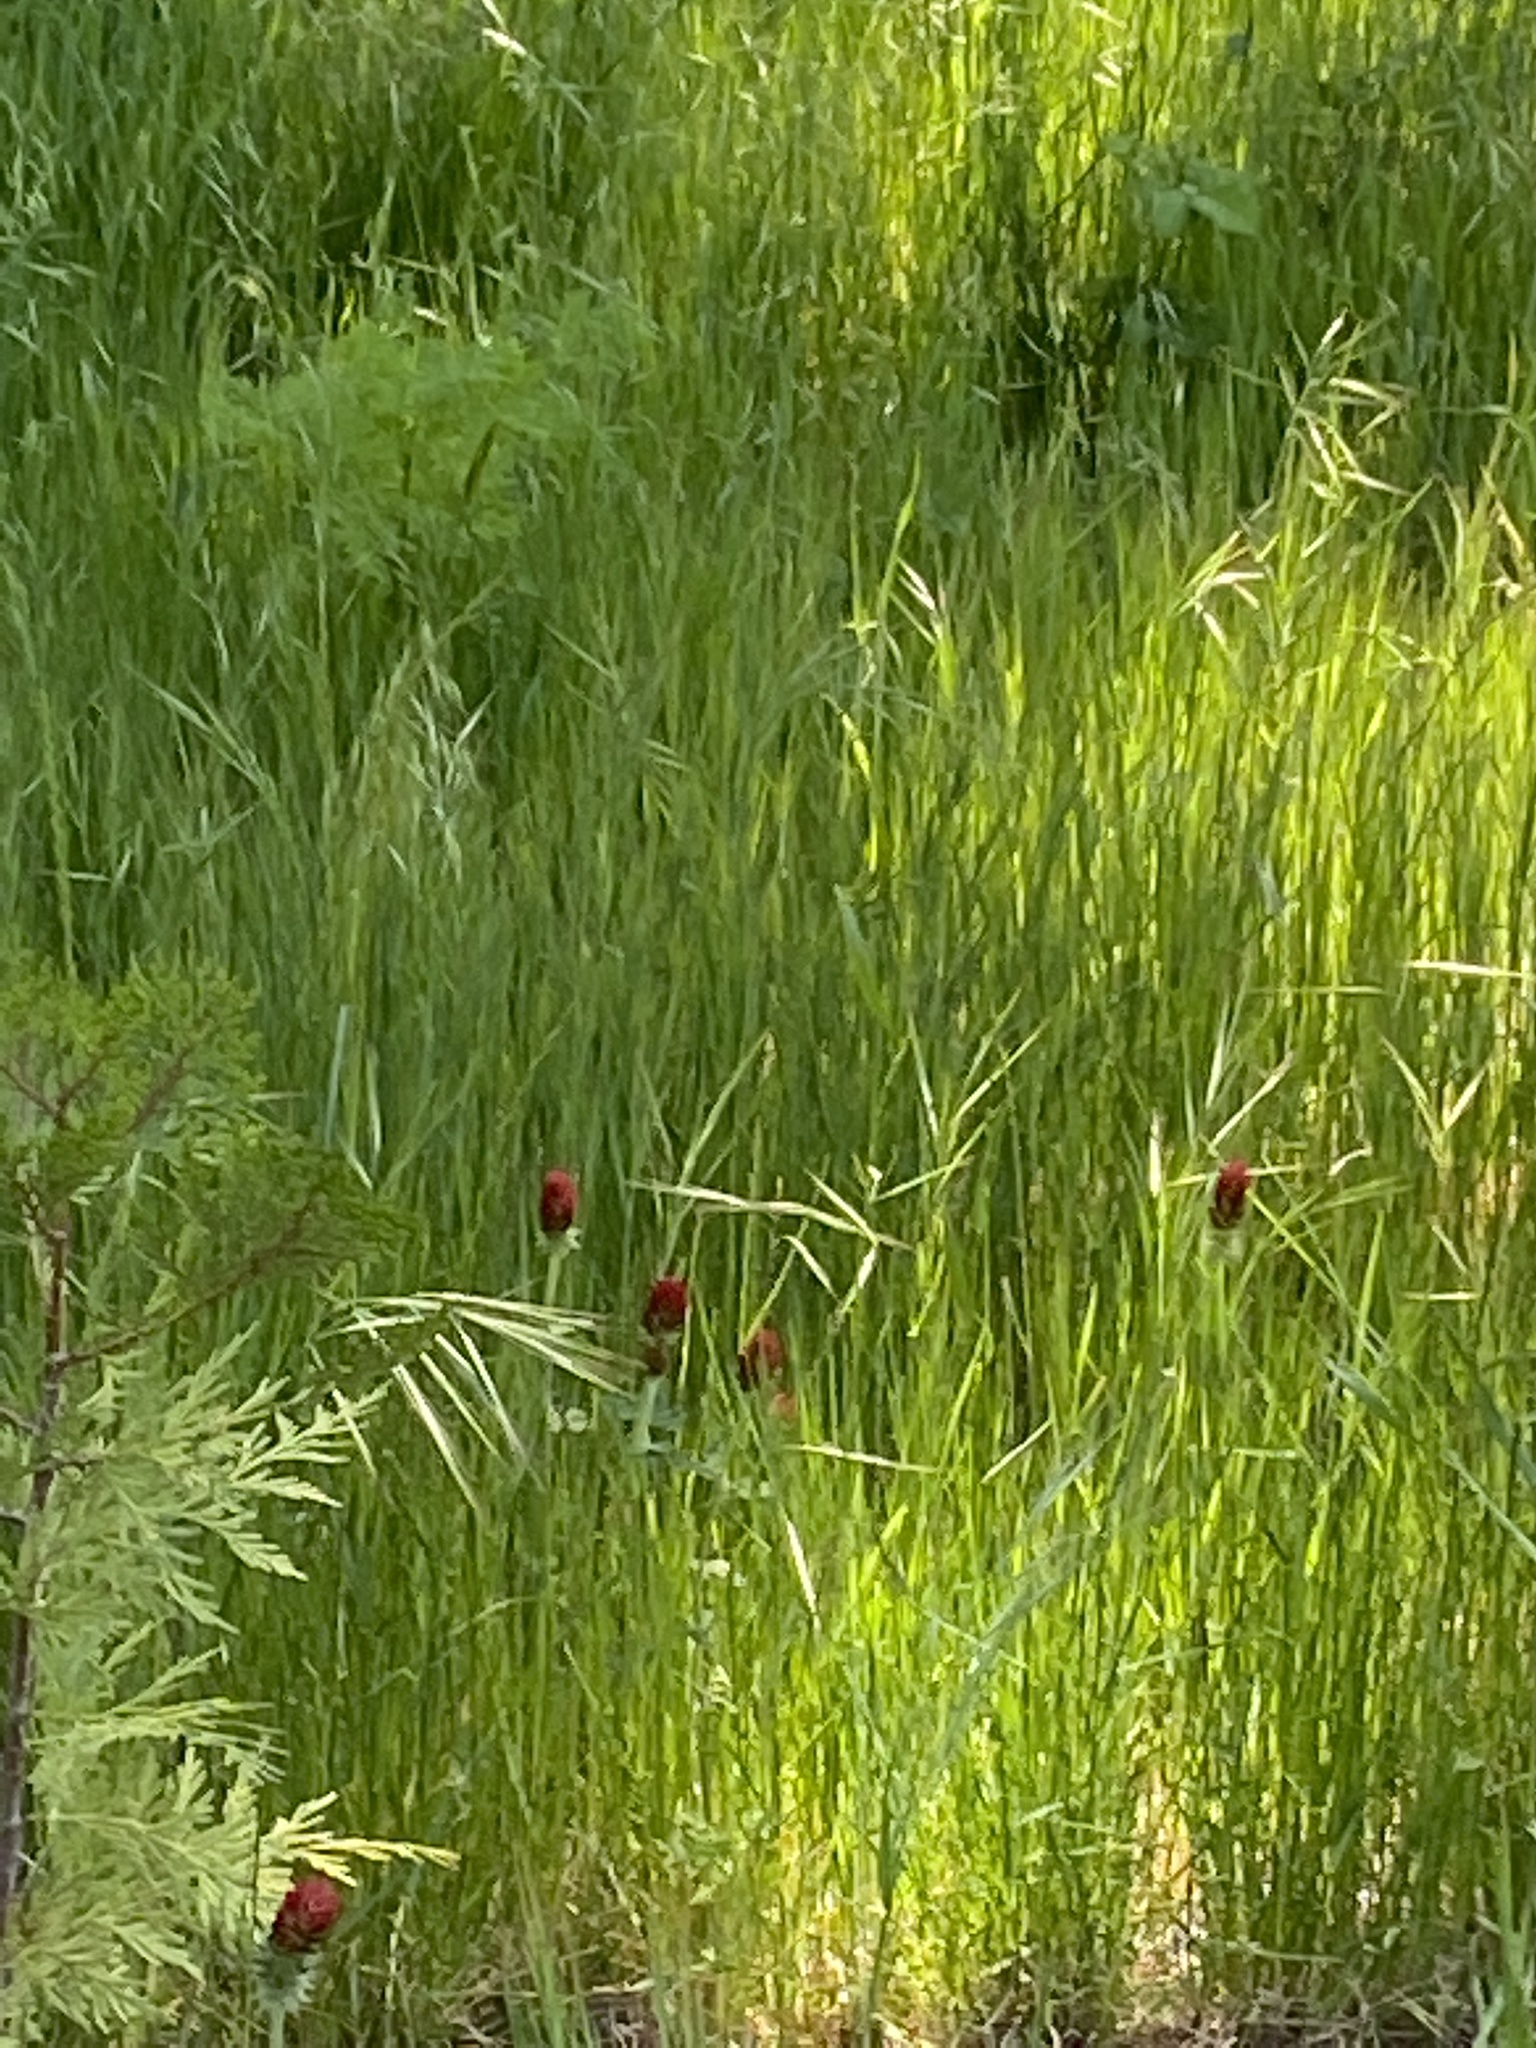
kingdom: Plantae
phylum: Tracheophyta
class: Magnoliopsida
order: Fabales
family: Fabaceae
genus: Trifolium
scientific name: Trifolium incarnatum
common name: Crimson clover
